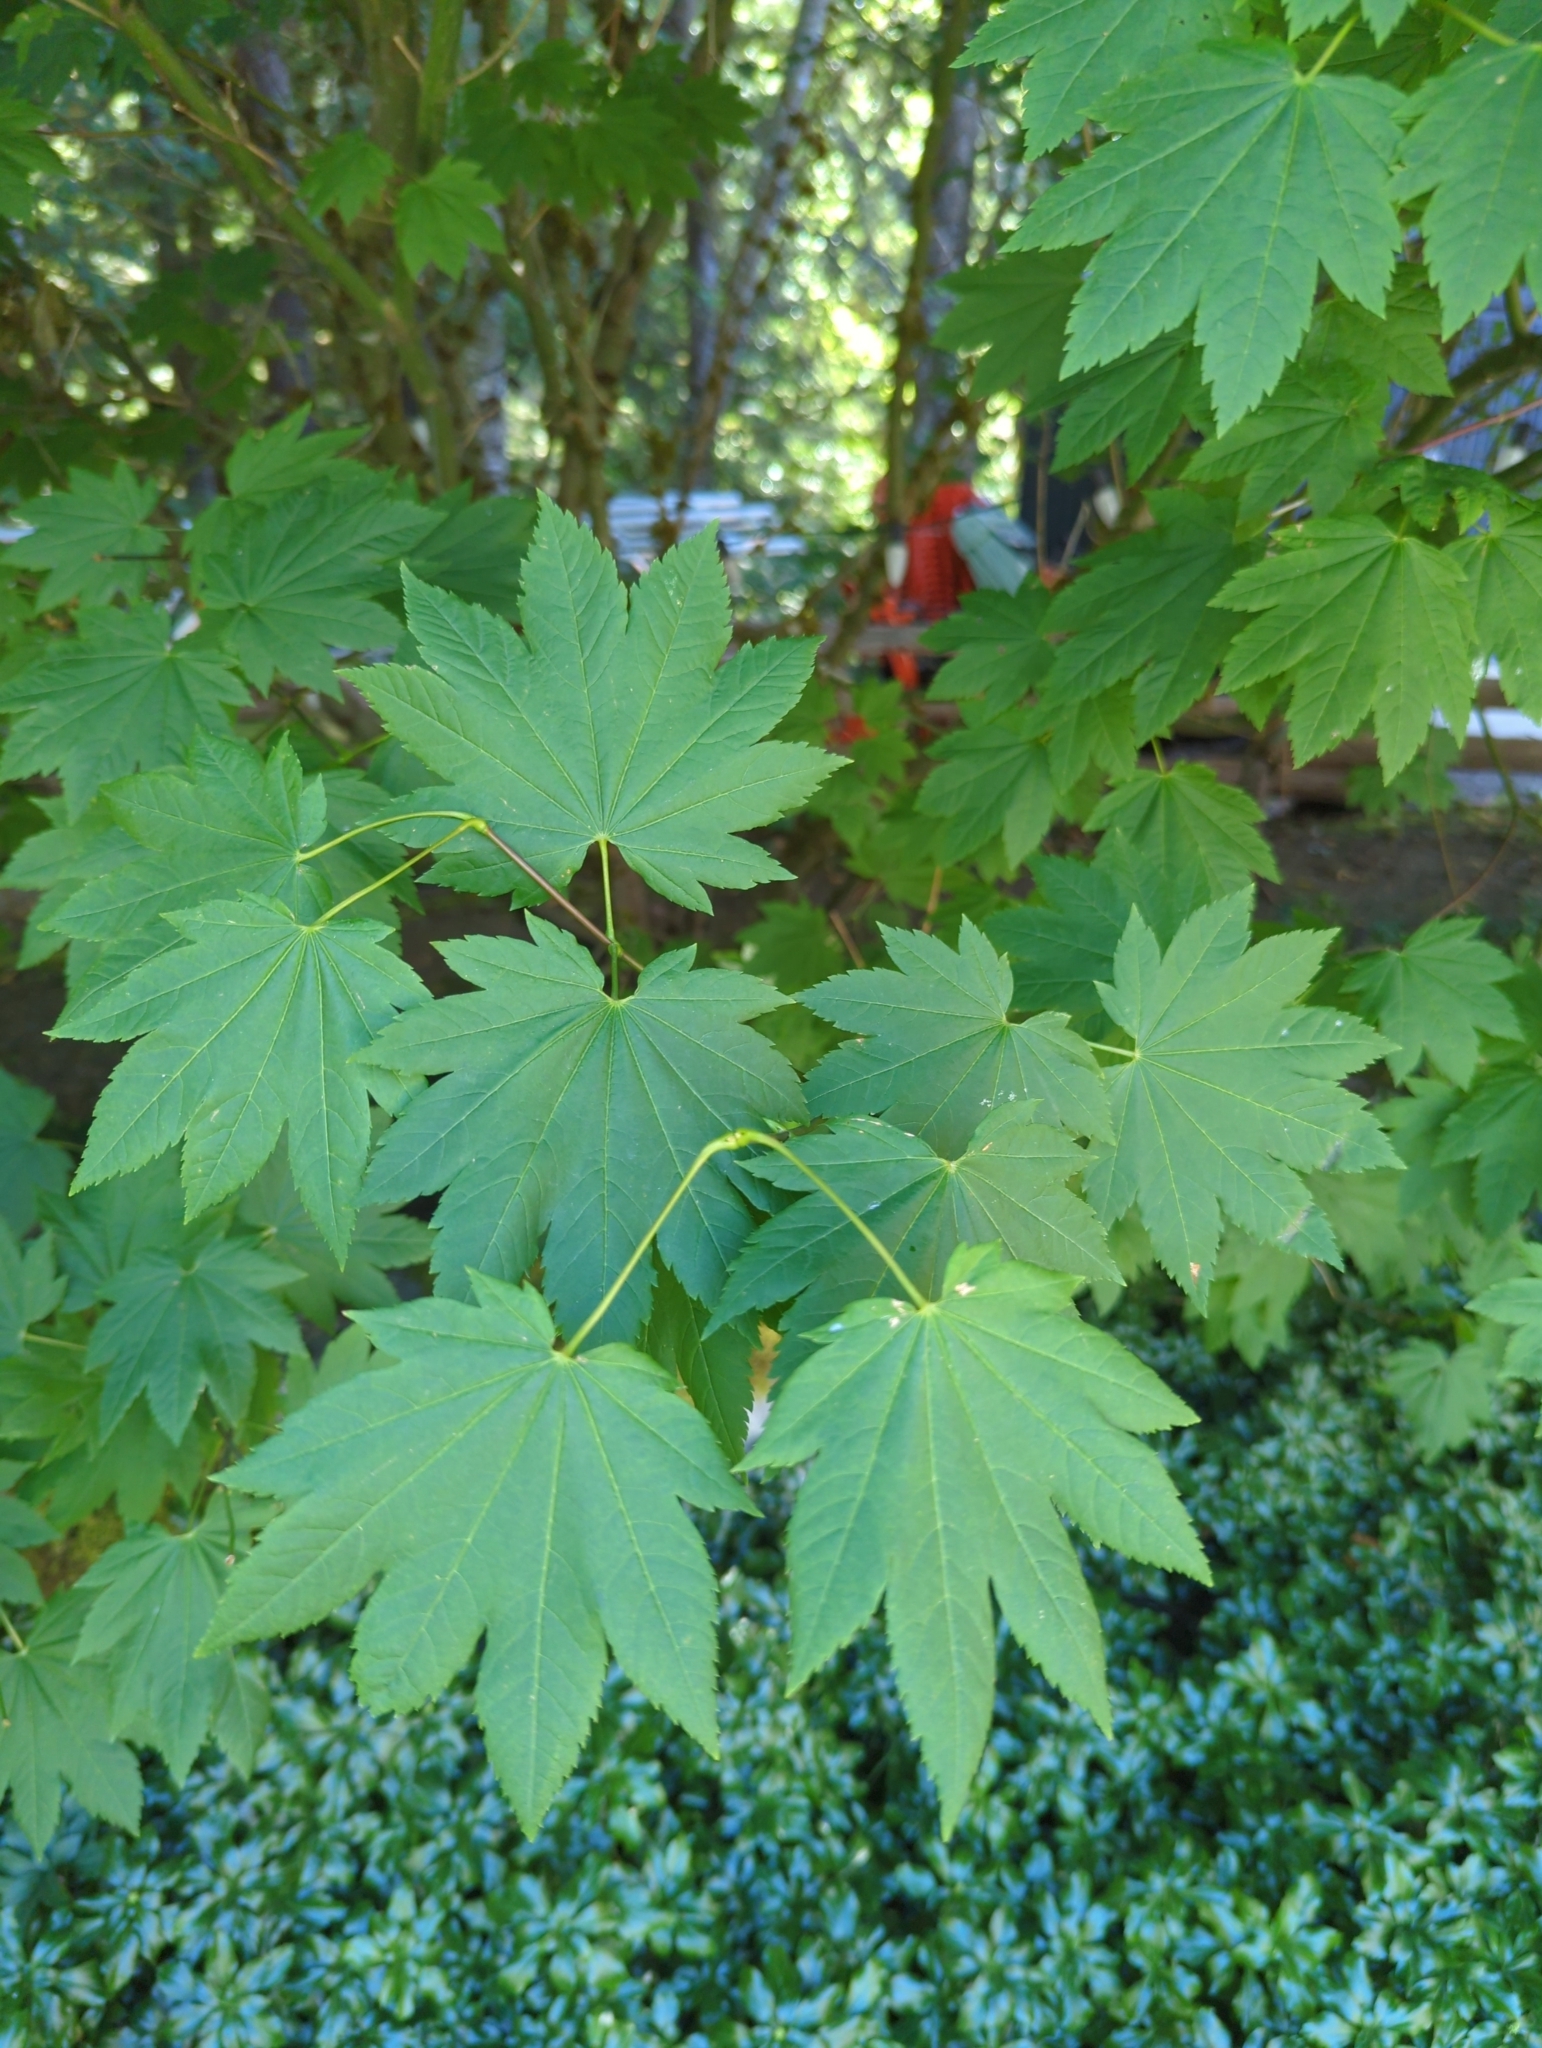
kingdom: Plantae
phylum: Tracheophyta
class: Magnoliopsida
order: Sapindales
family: Sapindaceae
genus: Acer
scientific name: Acer circinatum
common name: Vine maple
